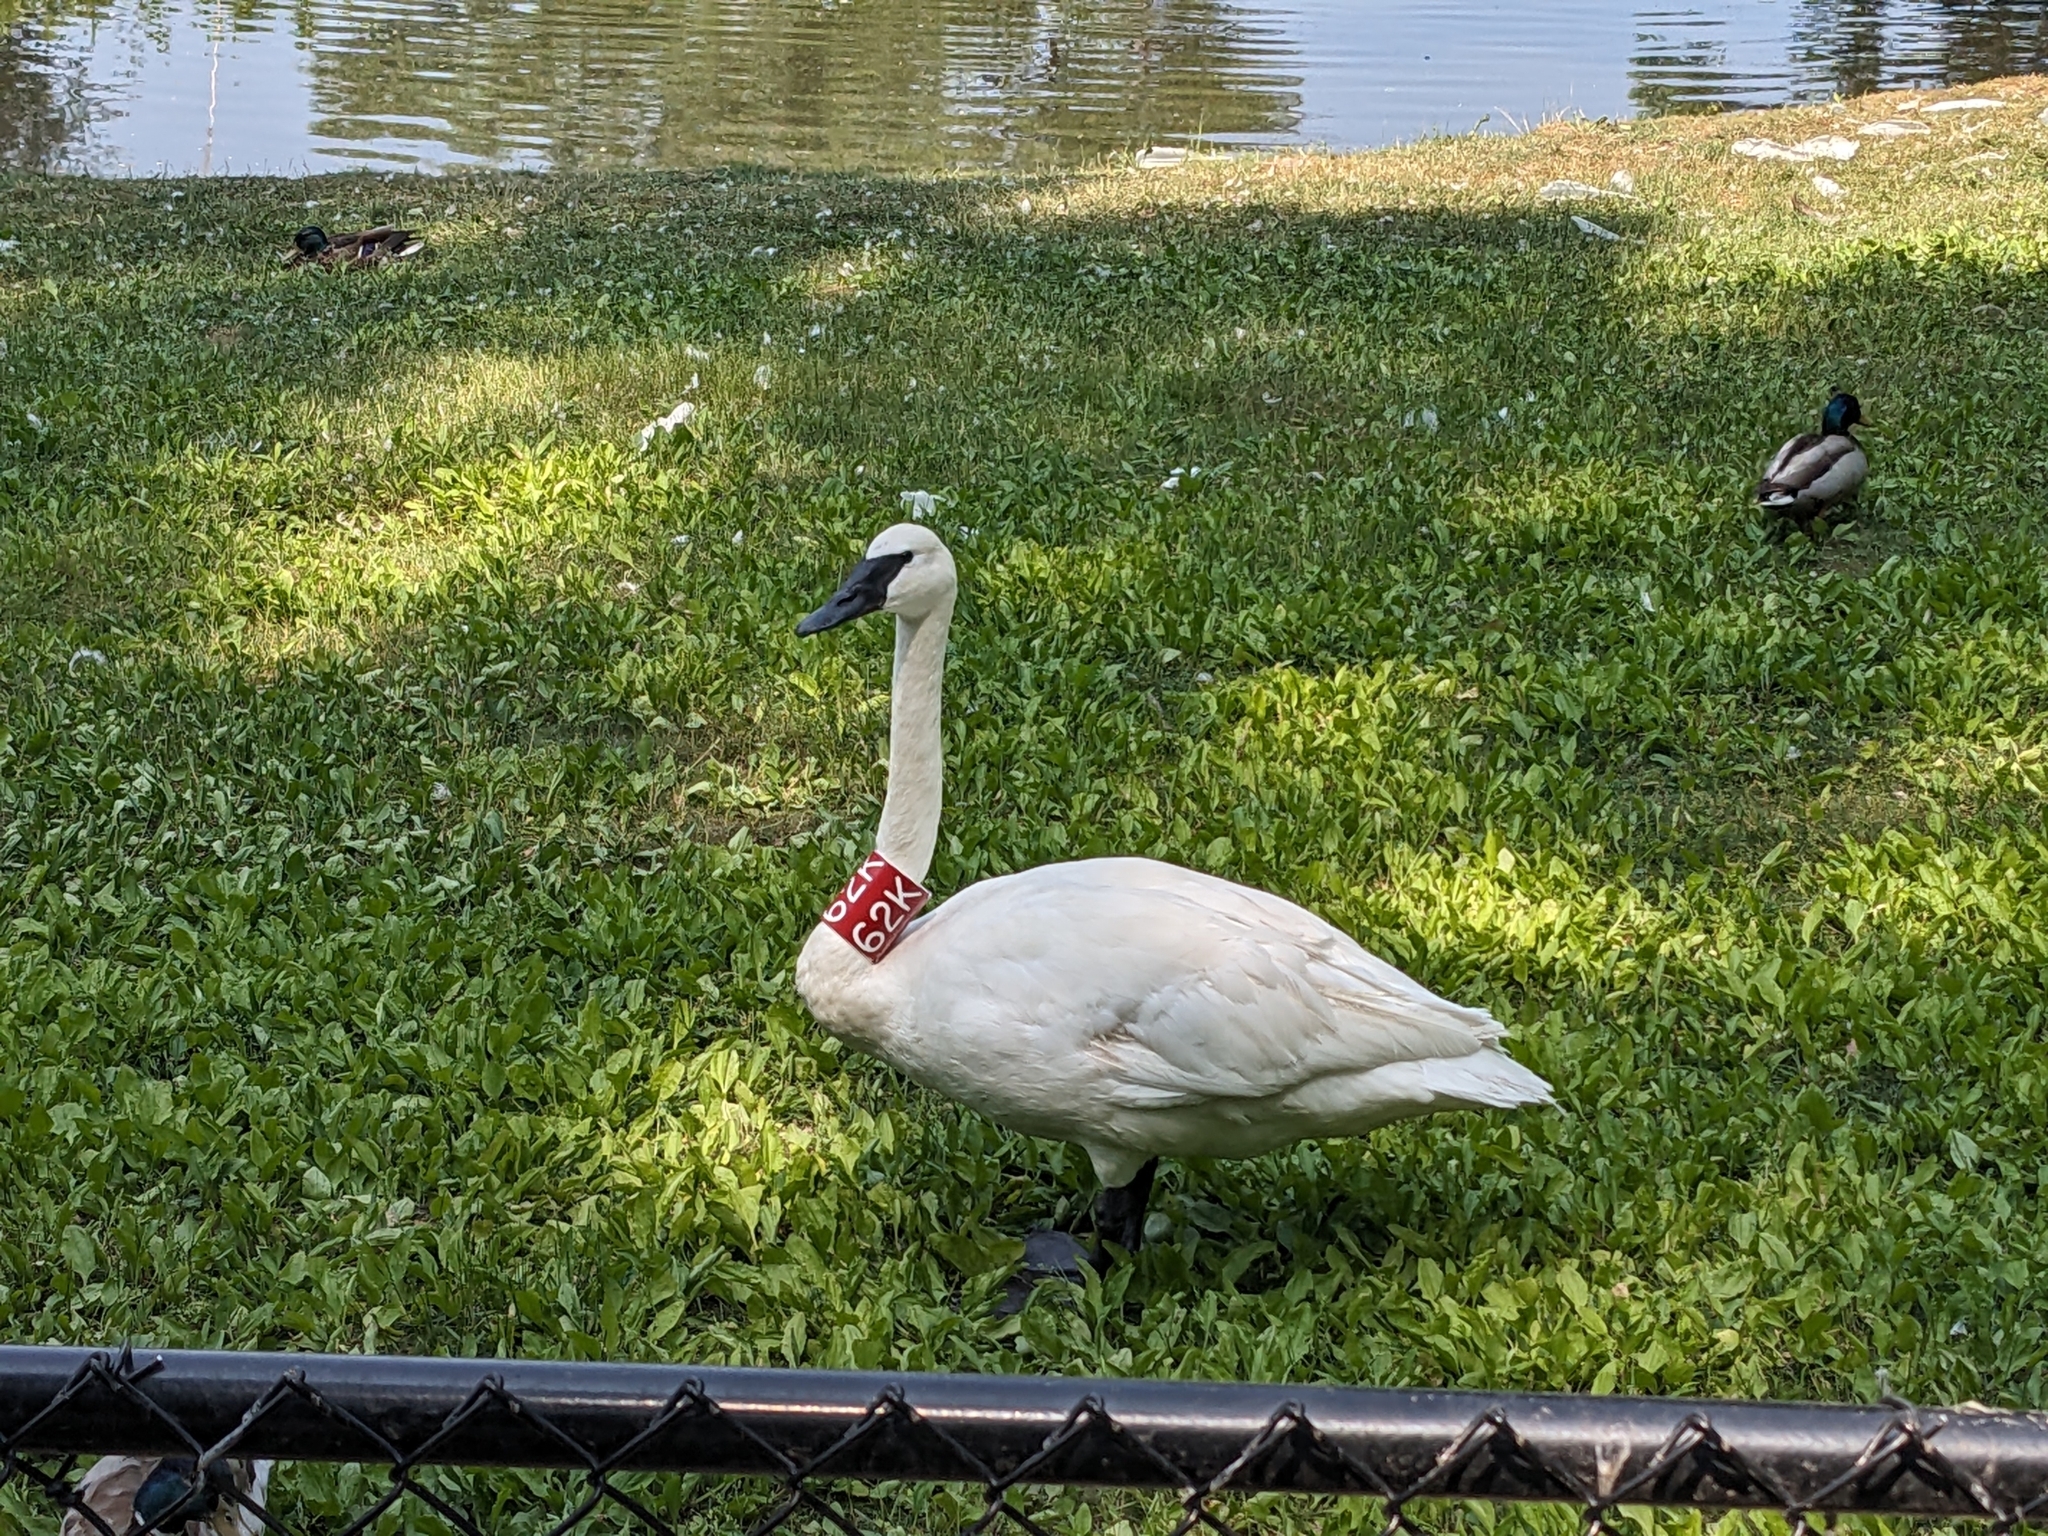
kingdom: Animalia
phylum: Chordata
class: Aves
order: Anseriformes
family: Anatidae
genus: Cygnus
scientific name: Cygnus buccinator
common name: Trumpeter swan
